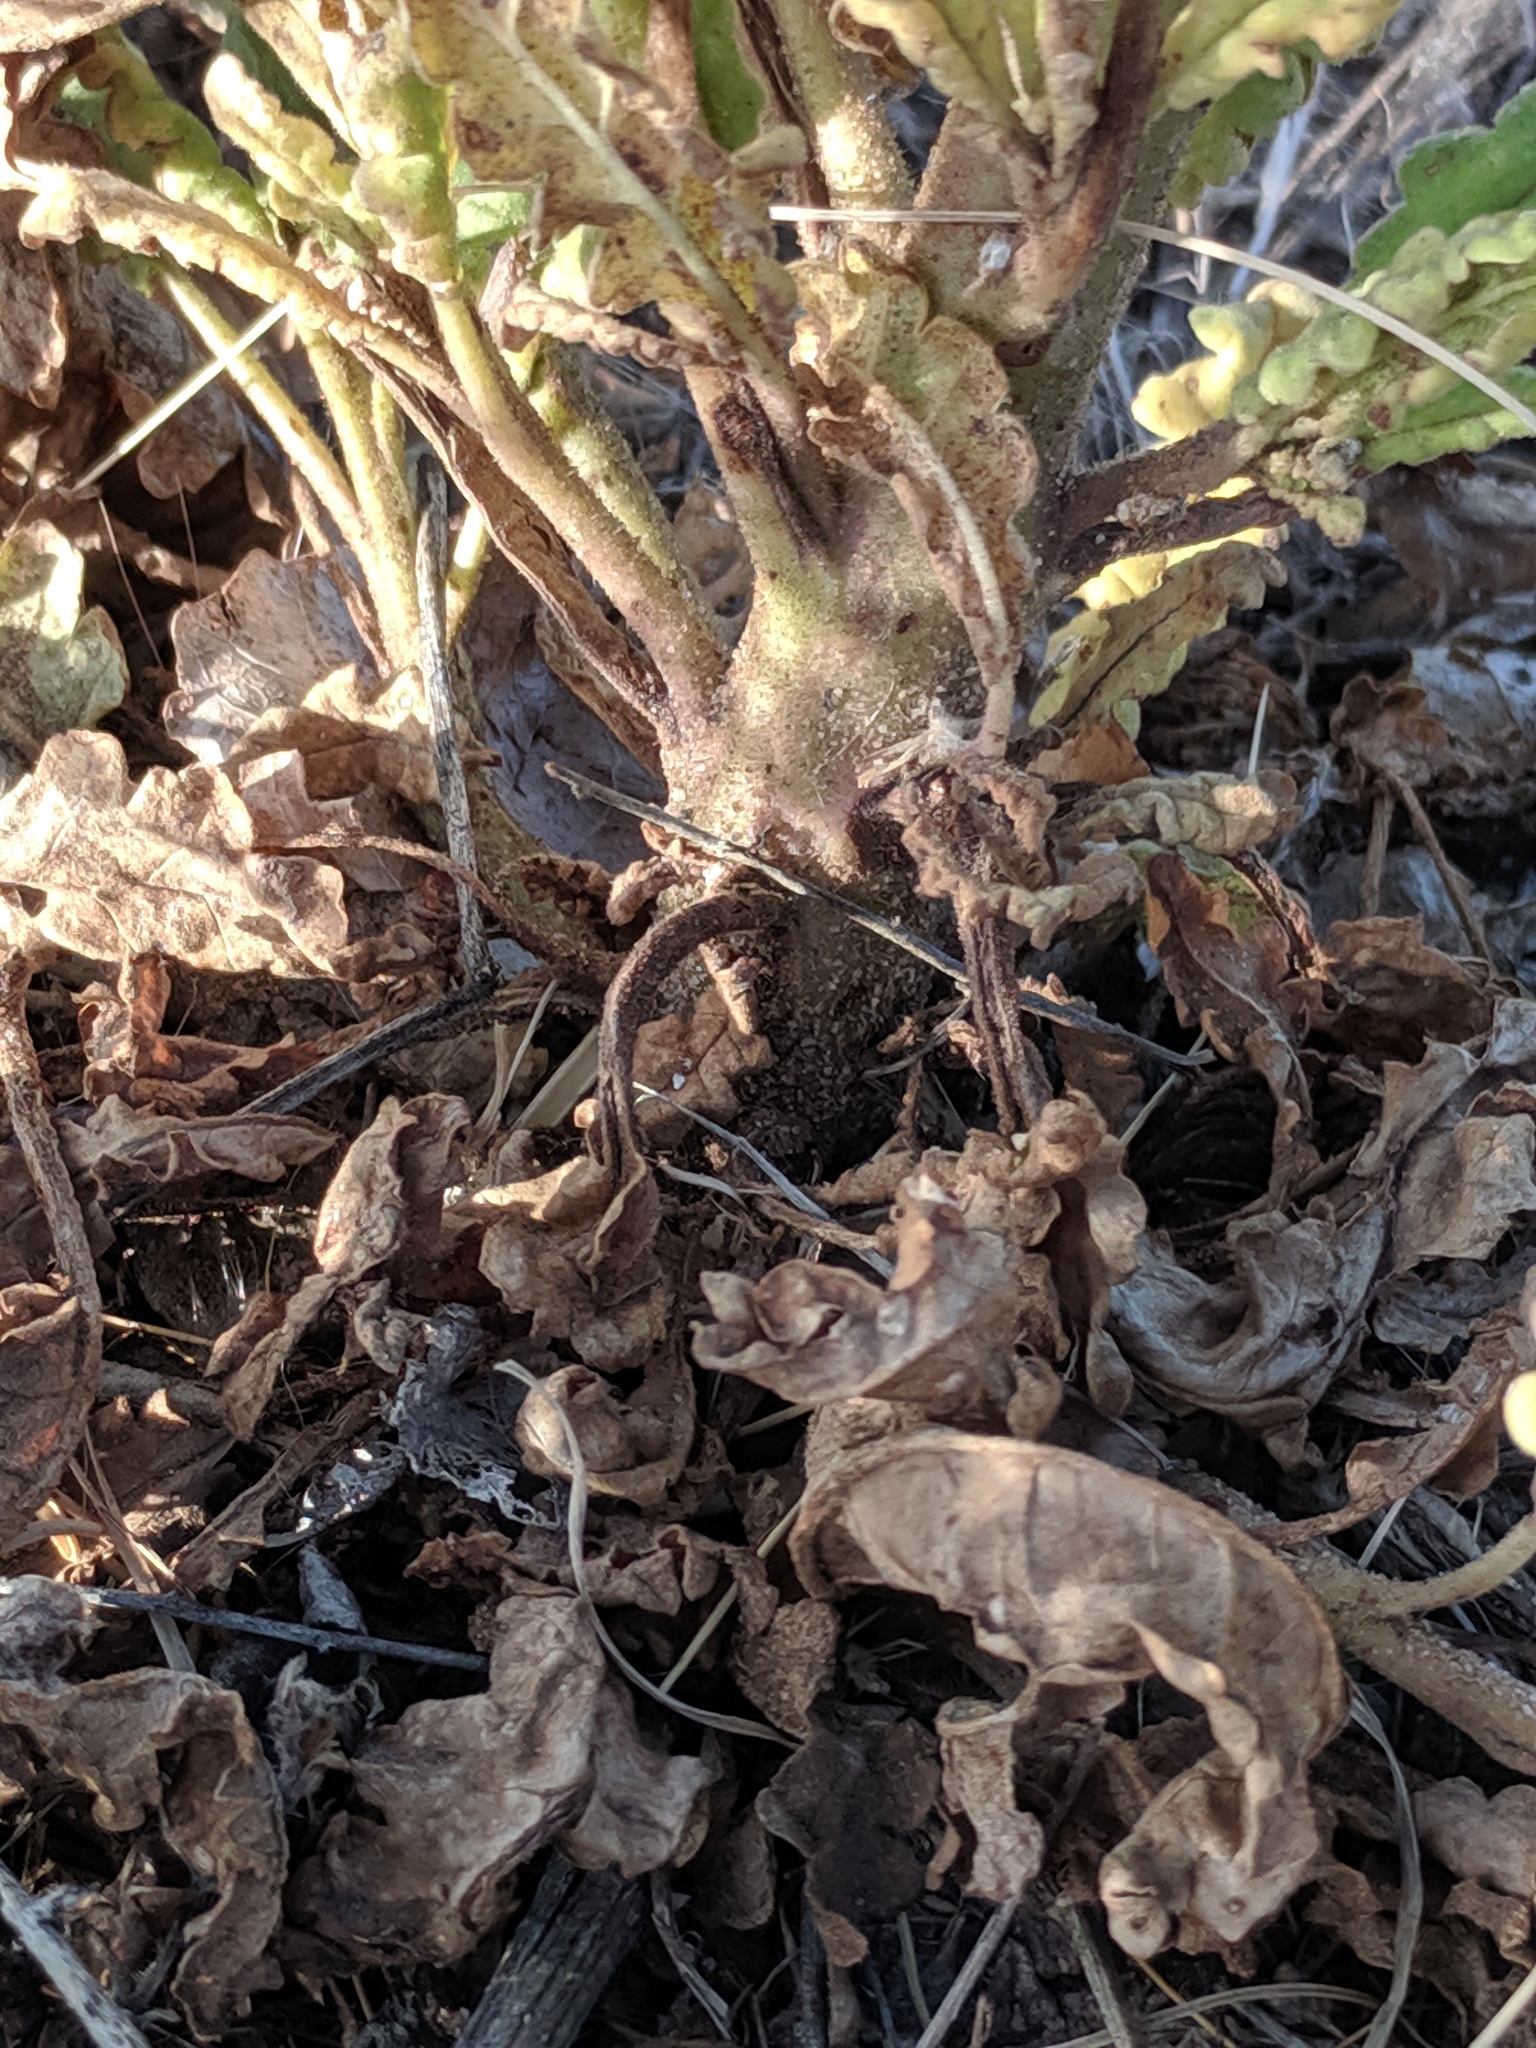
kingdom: Plantae
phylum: Tracheophyta
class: Magnoliopsida
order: Boraginales
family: Hydrophyllaceae
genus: Phacelia
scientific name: Phacelia integrifolia
